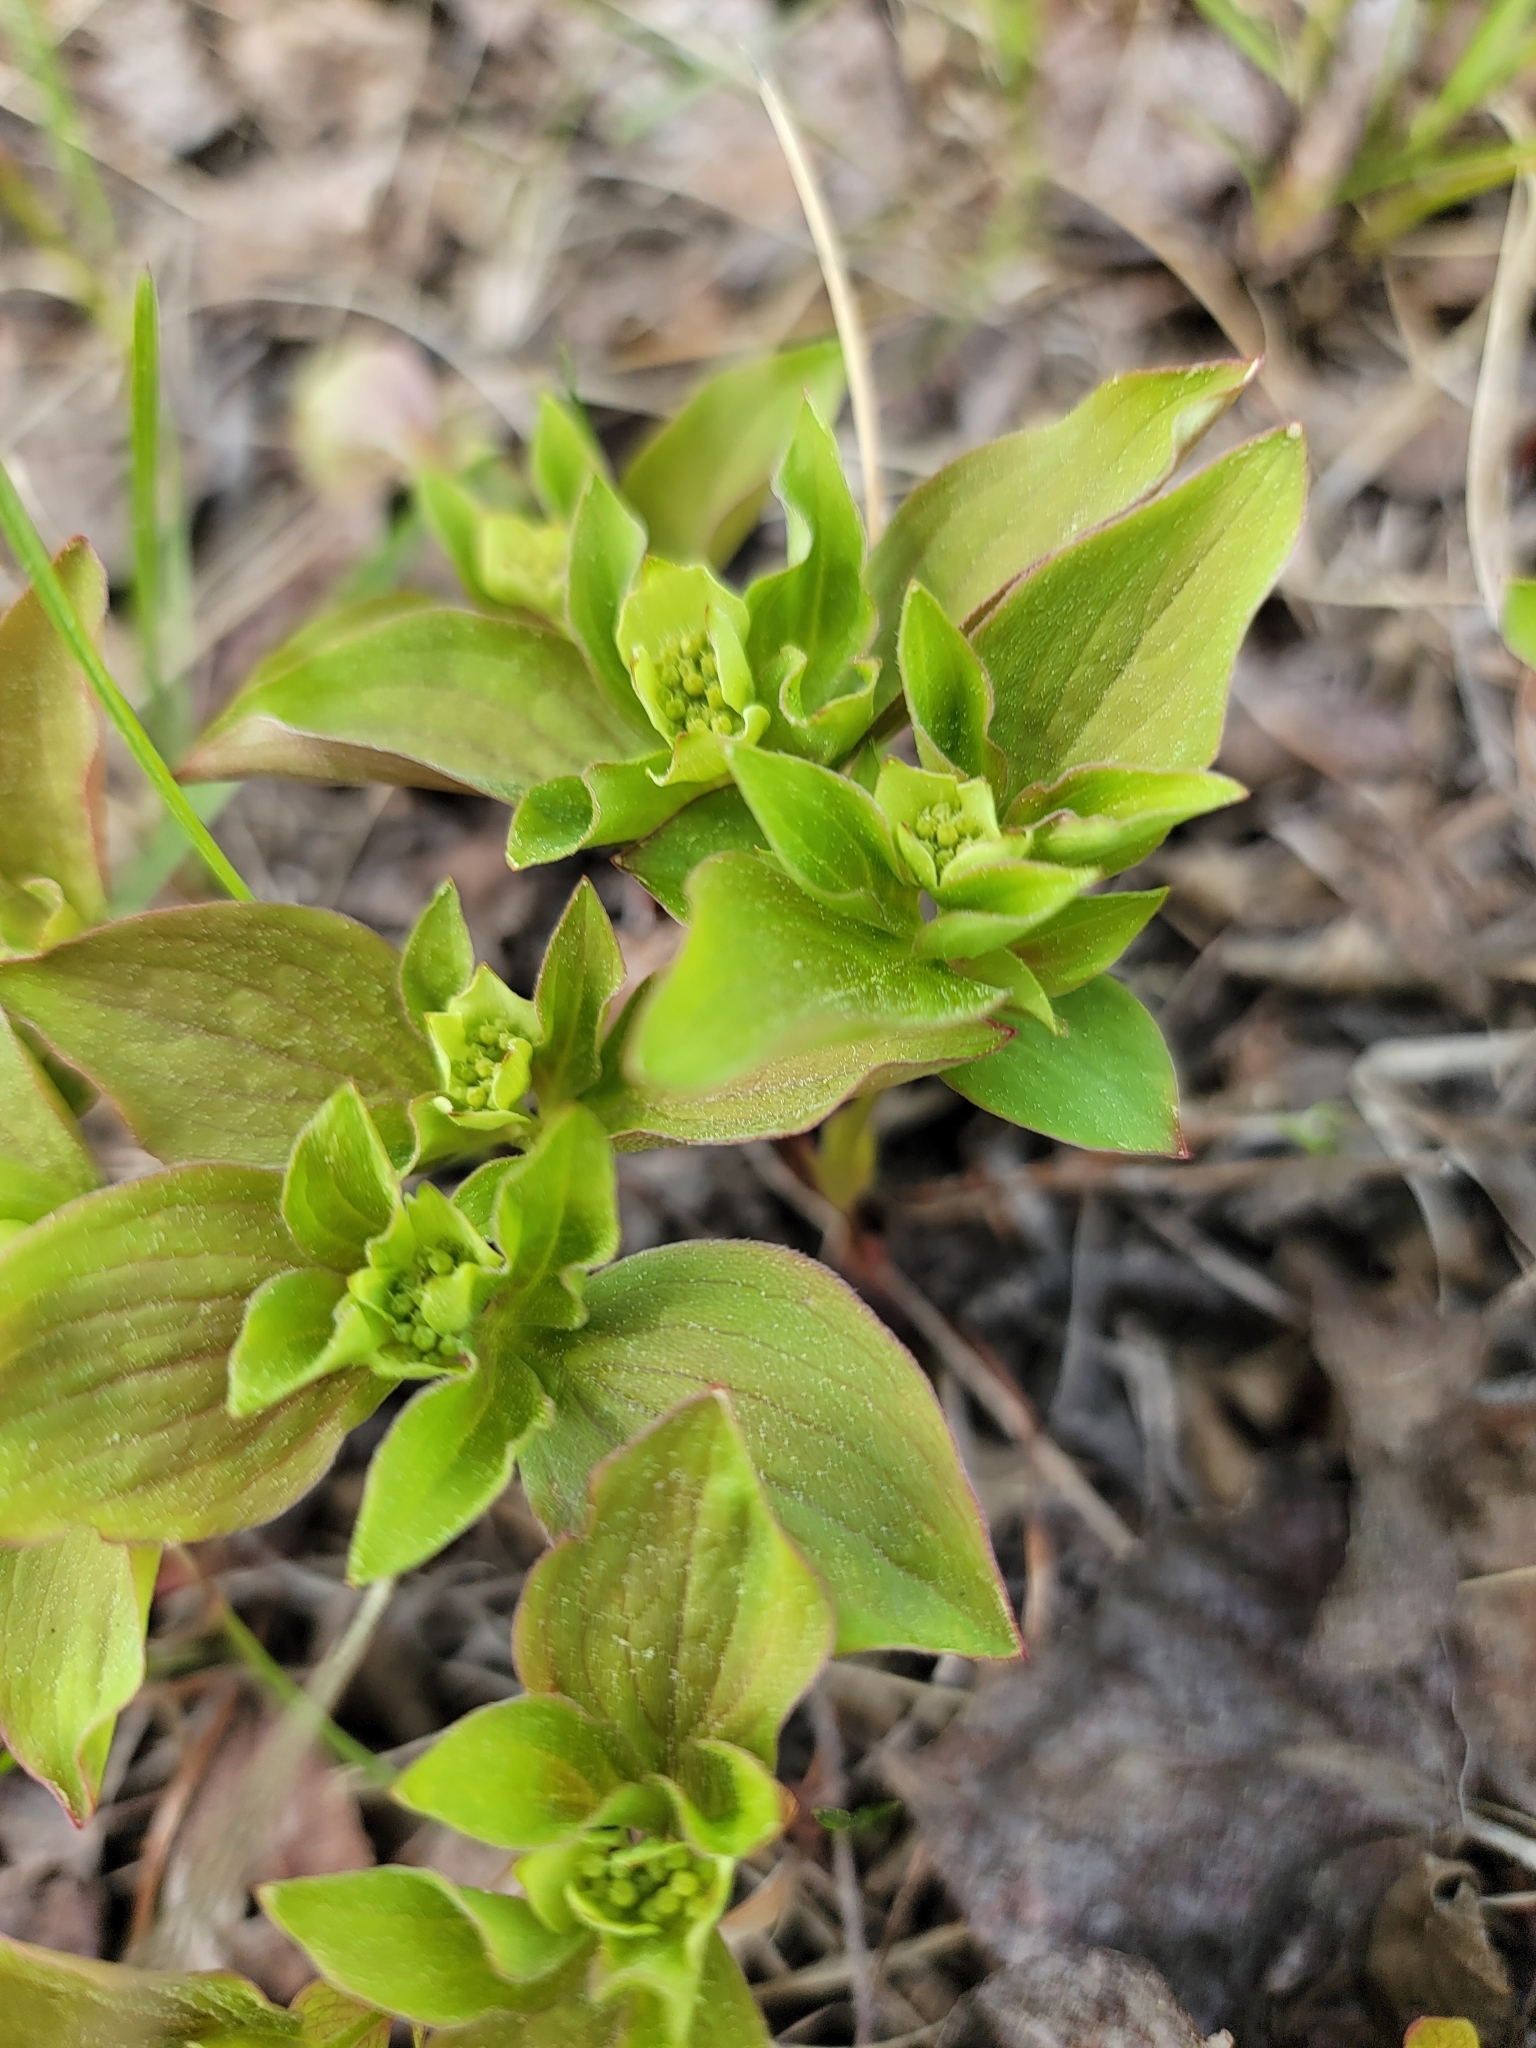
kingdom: Plantae
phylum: Tracheophyta
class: Magnoliopsida
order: Cornales
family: Cornaceae
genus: Cornus
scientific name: Cornus canadensis
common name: Creeping dogwood
